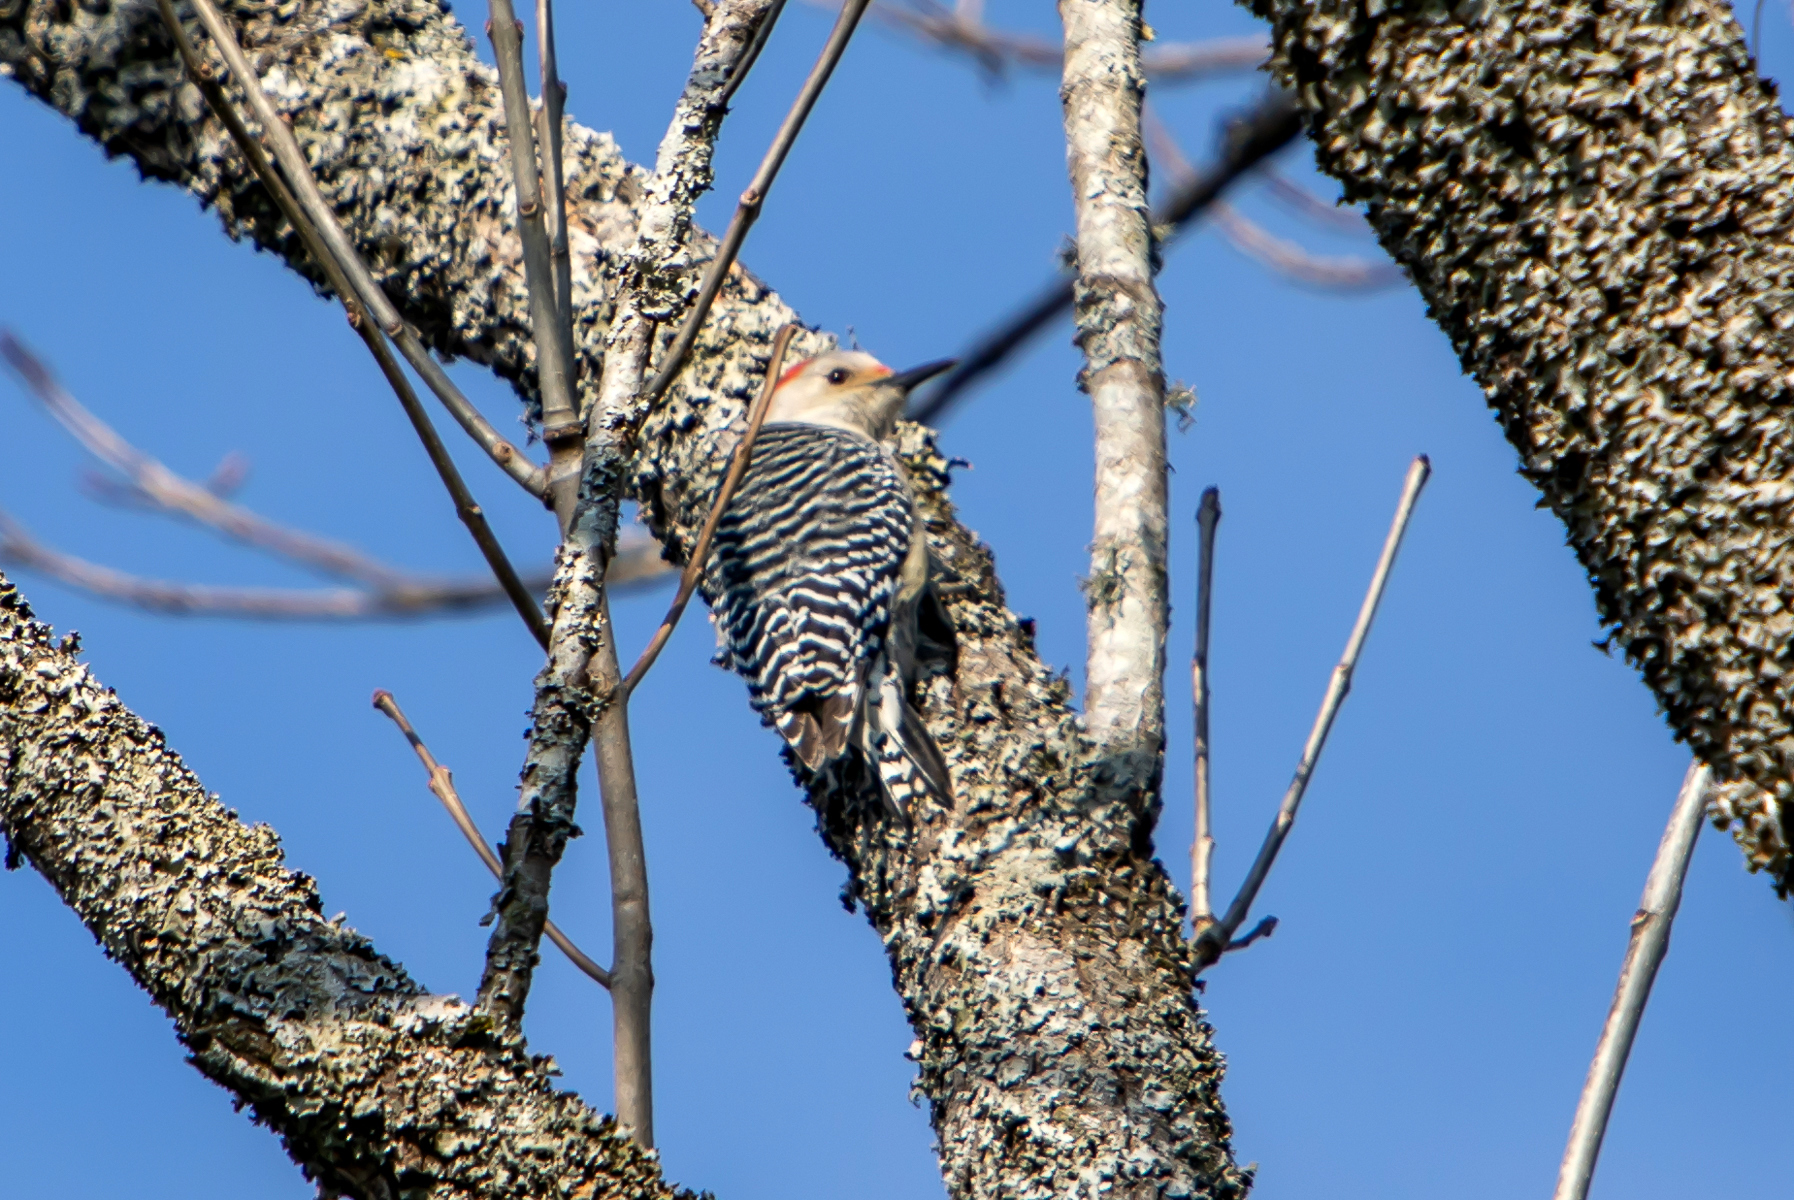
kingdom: Animalia
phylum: Chordata
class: Aves
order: Piciformes
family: Picidae
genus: Melanerpes
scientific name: Melanerpes carolinus
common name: Red-bellied woodpecker
